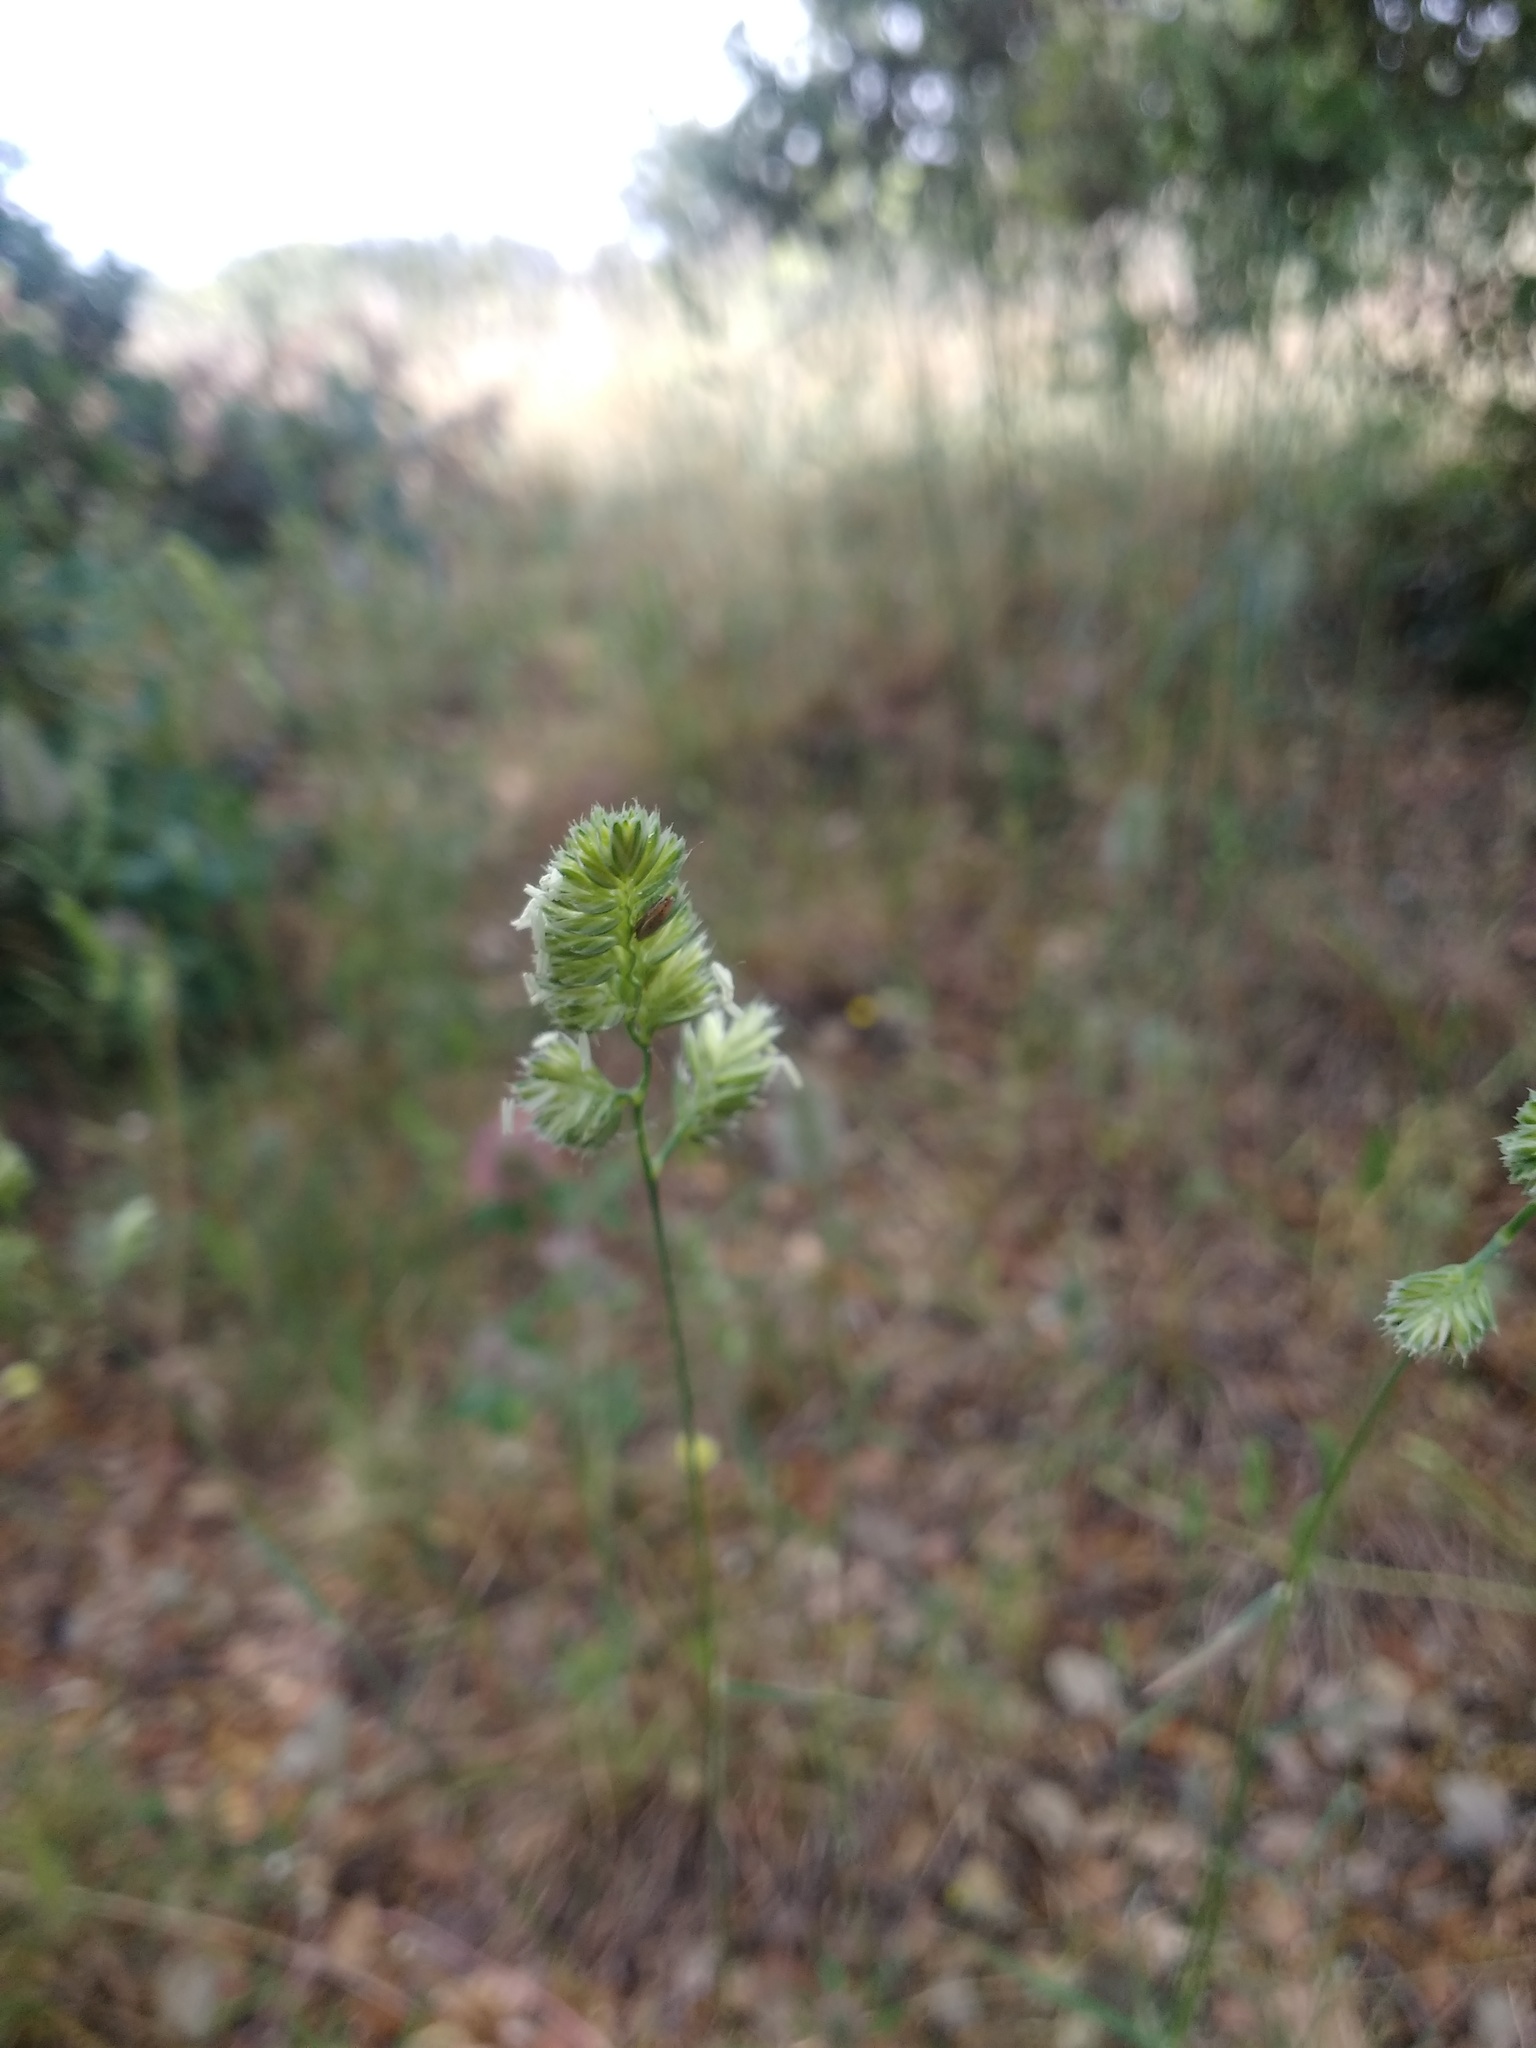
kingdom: Plantae
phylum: Tracheophyta
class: Liliopsida
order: Poales
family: Poaceae
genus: Dactylis
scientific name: Dactylis glomerata
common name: Orchardgrass
